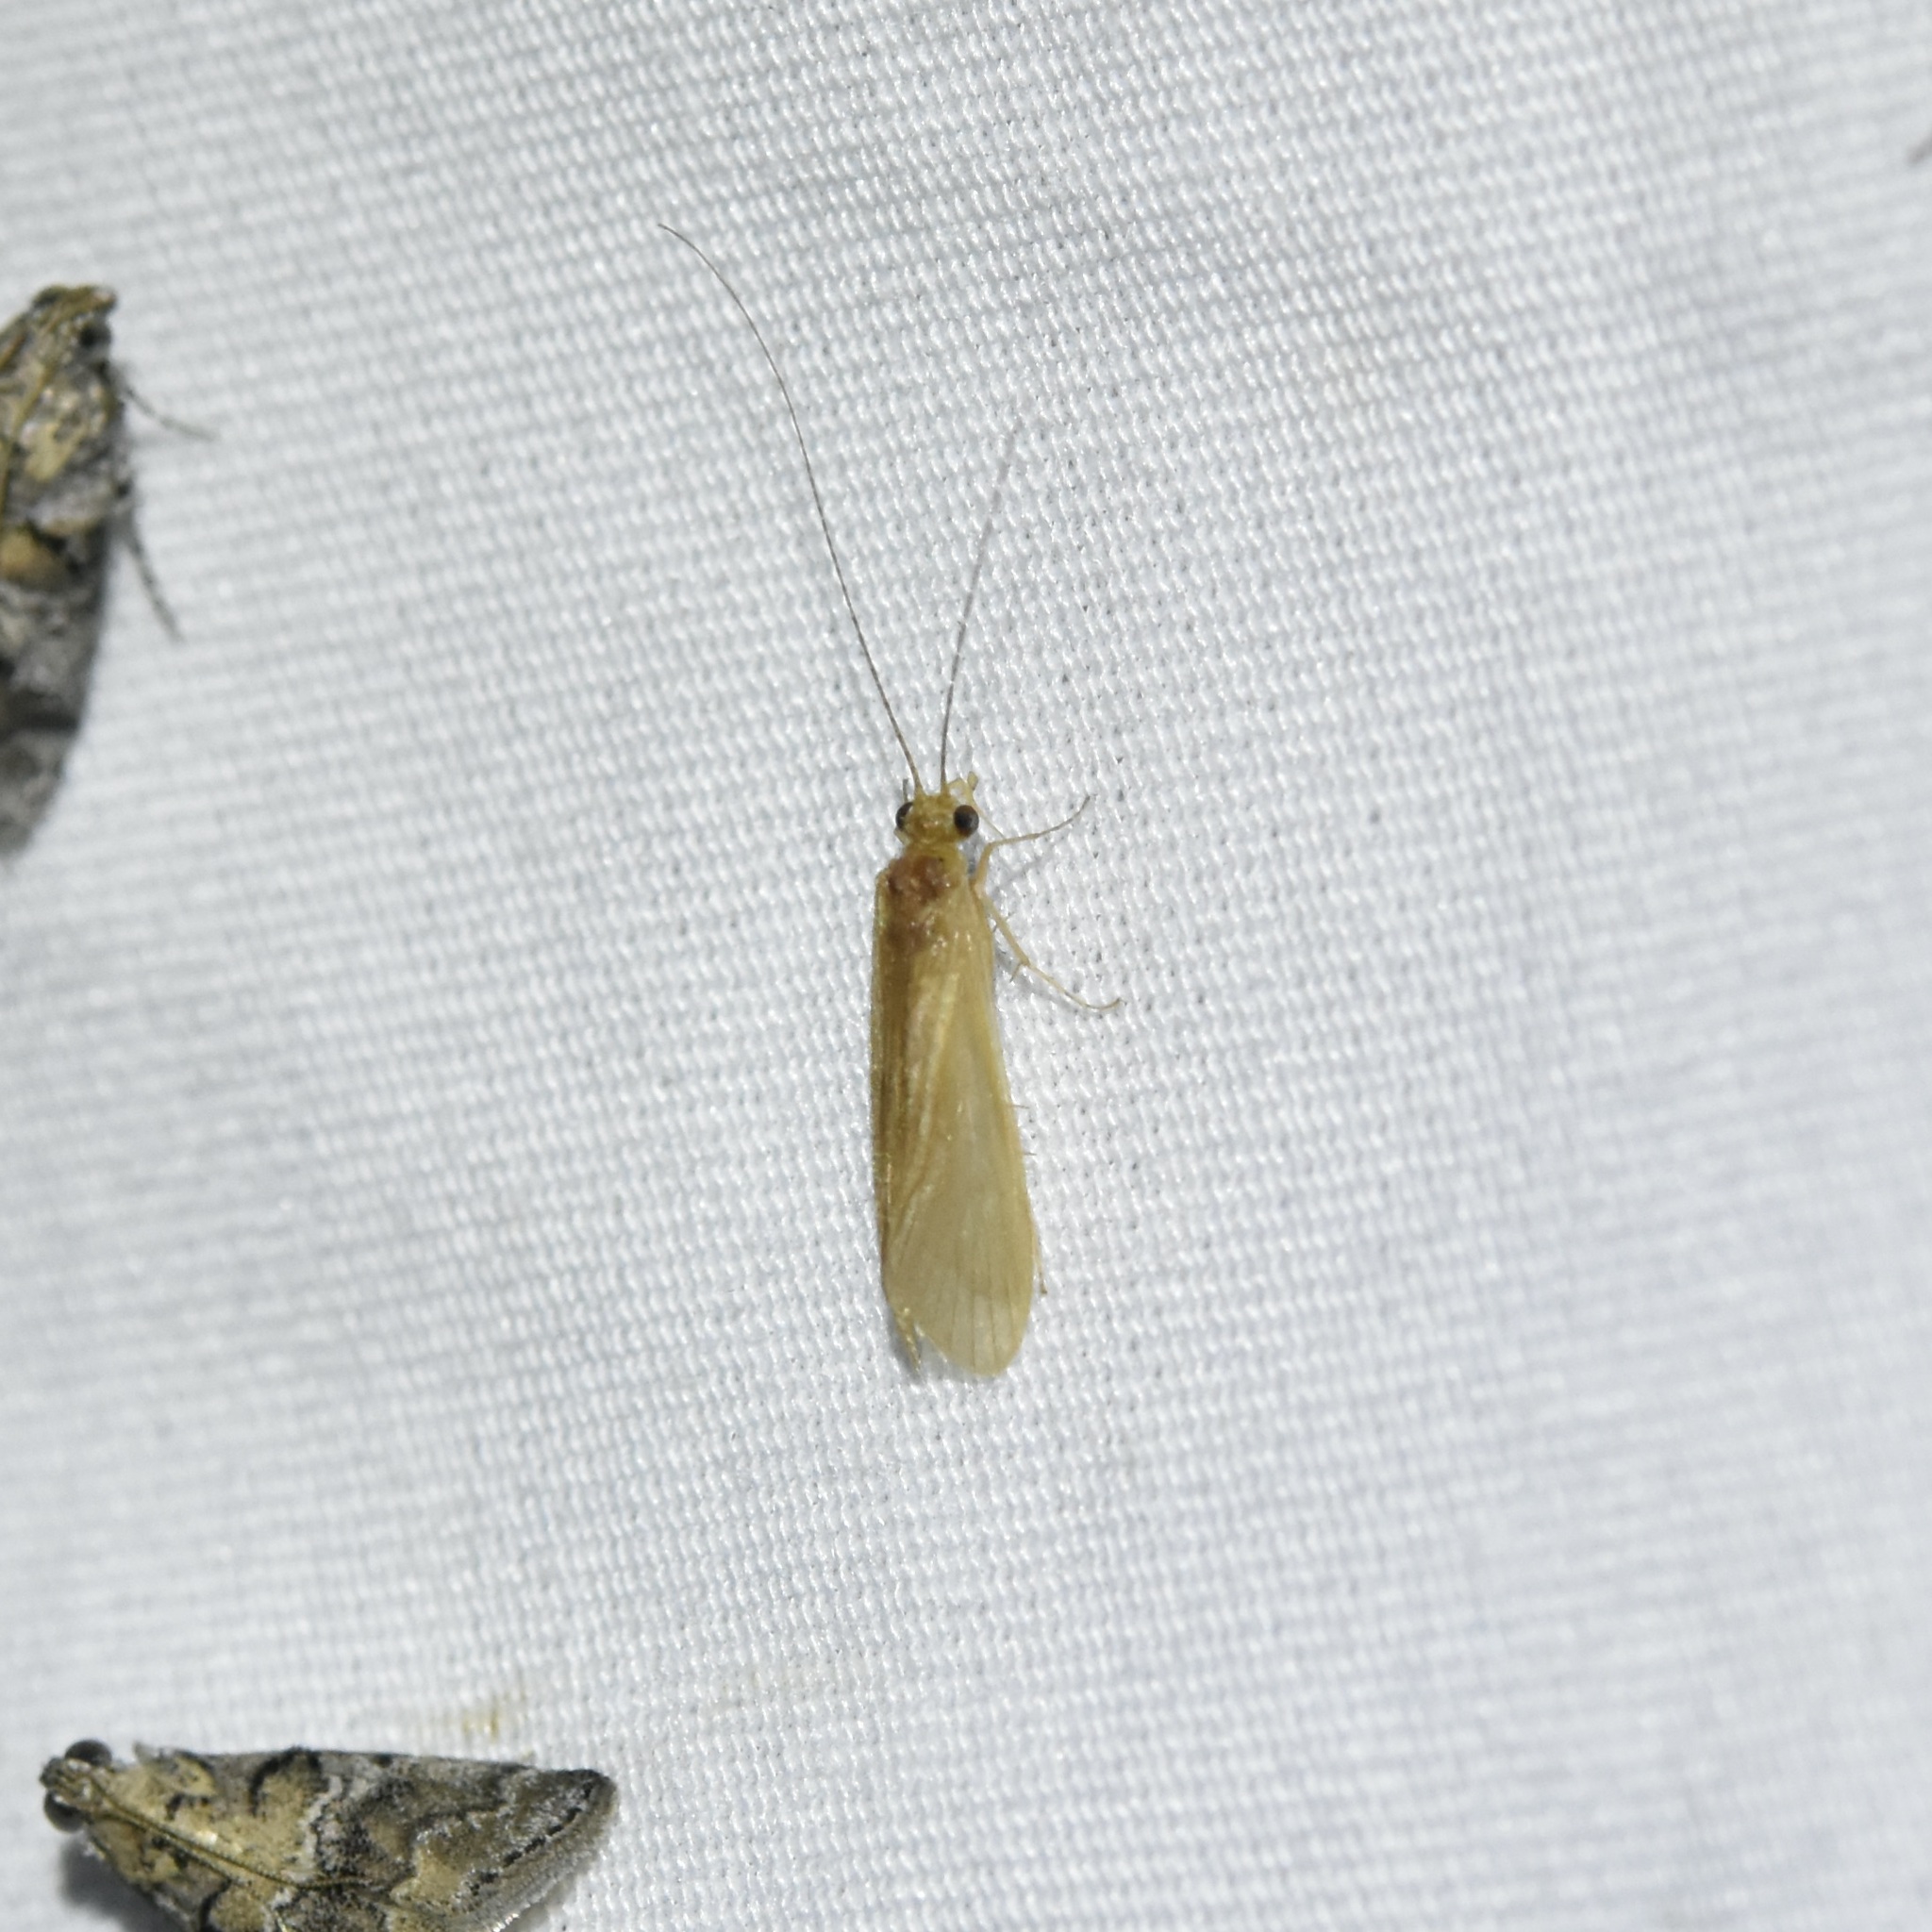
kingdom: Animalia
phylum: Arthropoda
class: Insecta
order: Trichoptera
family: Hydropsychidae
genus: Potamyia
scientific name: Potamyia flava
